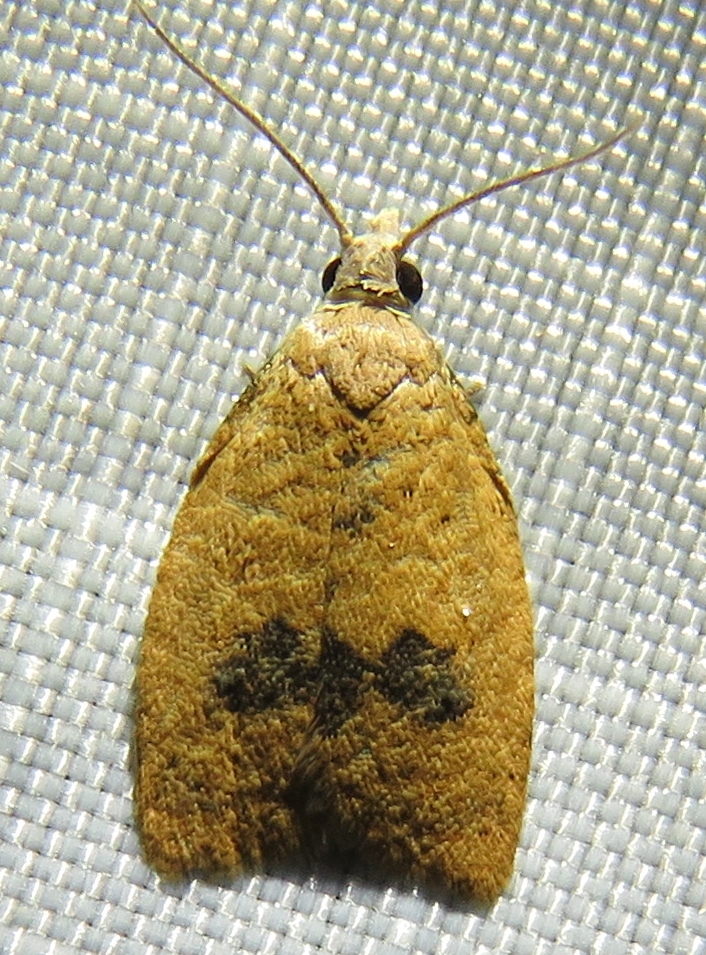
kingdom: Animalia
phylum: Arthropoda
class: Insecta
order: Lepidoptera
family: Tortricidae
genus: Sparganothoides
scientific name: Sparganothoides lentiginosana
